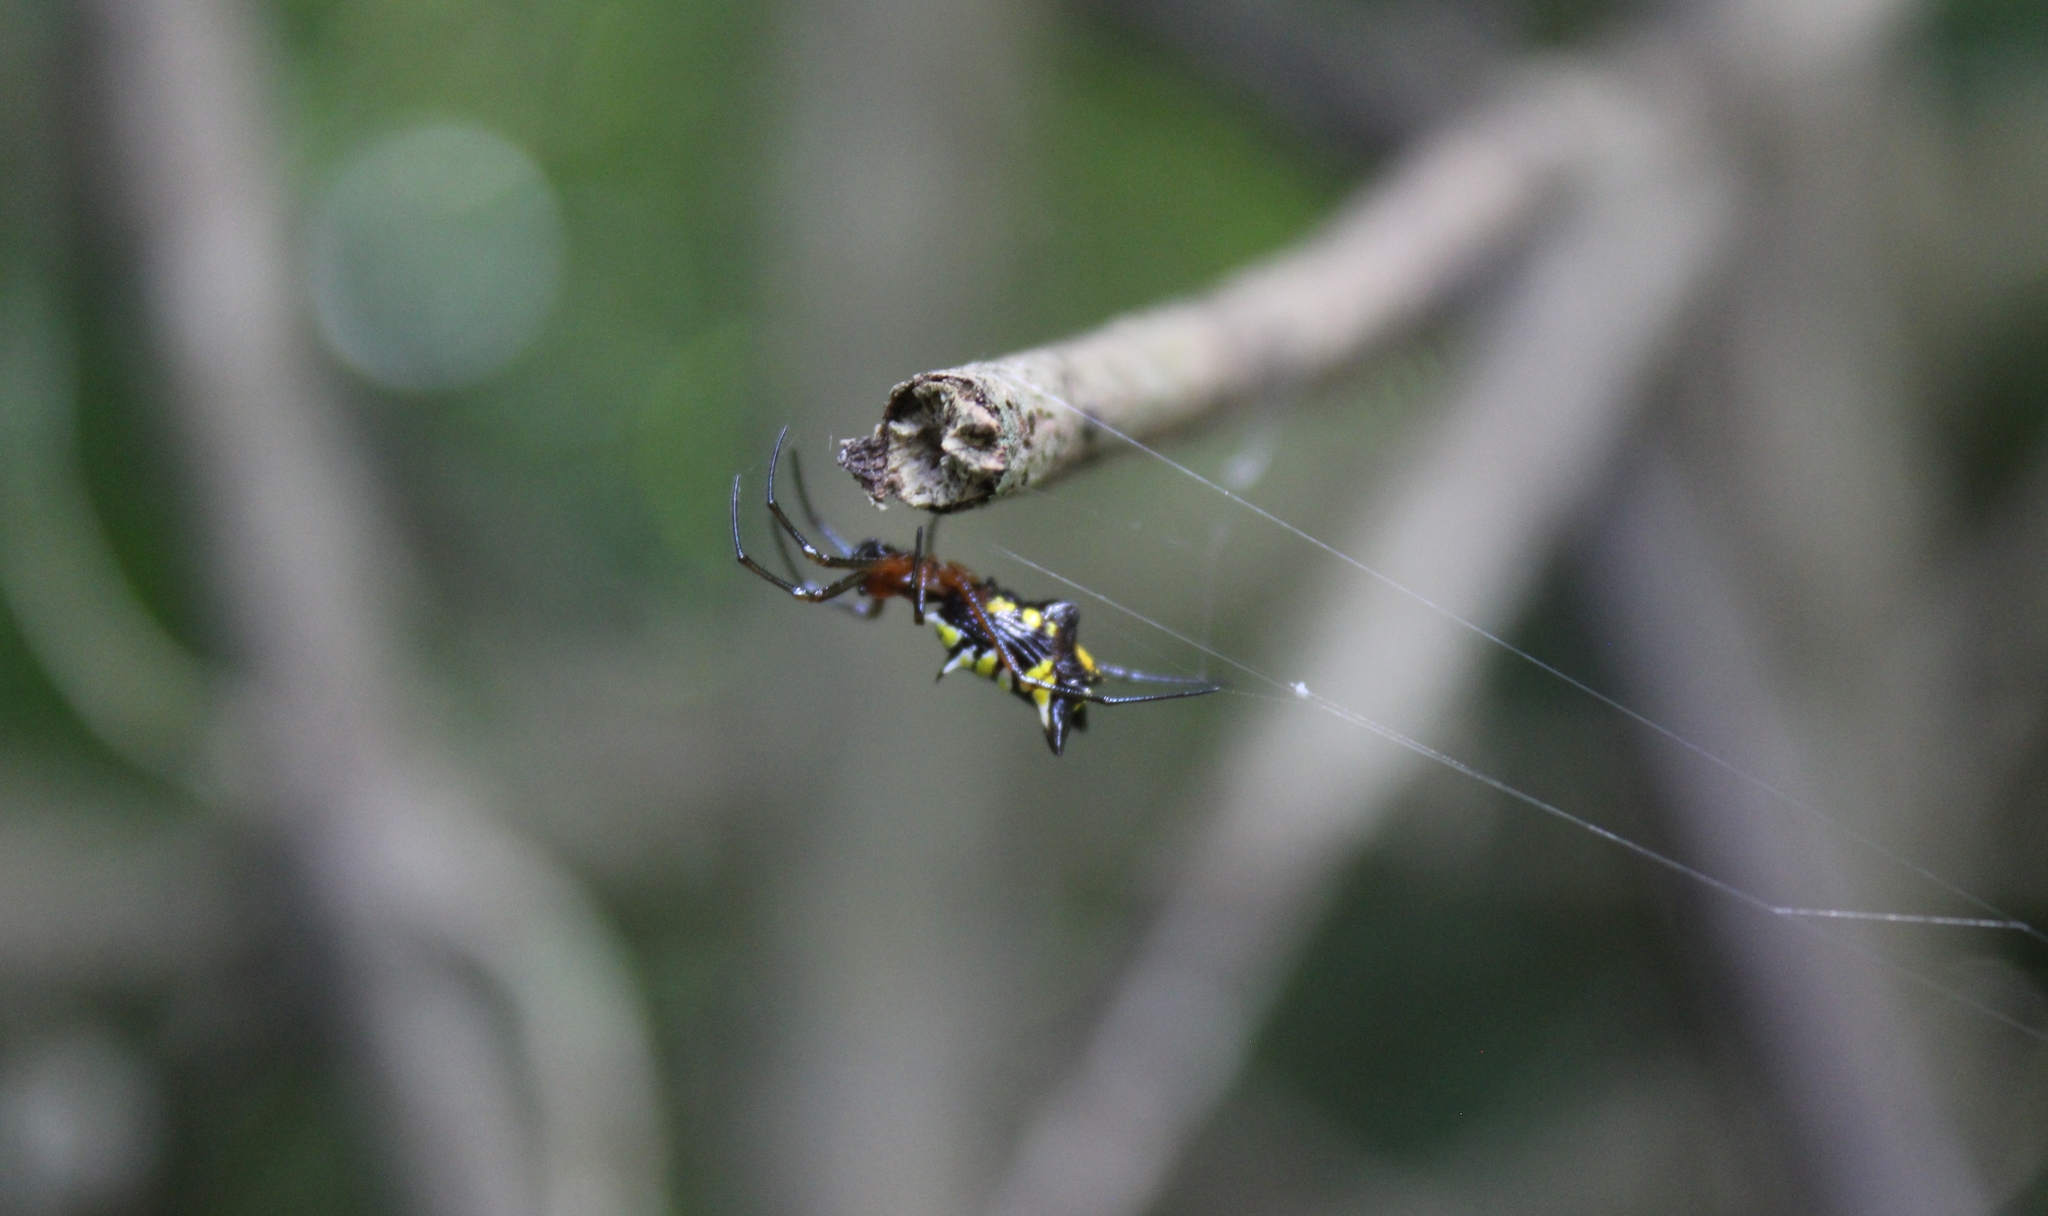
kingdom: Animalia
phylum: Arthropoda
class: Arachnida
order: Araneae
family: Araneidae
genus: Micrathena
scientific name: Micrathena funebris
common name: Orb weavers
